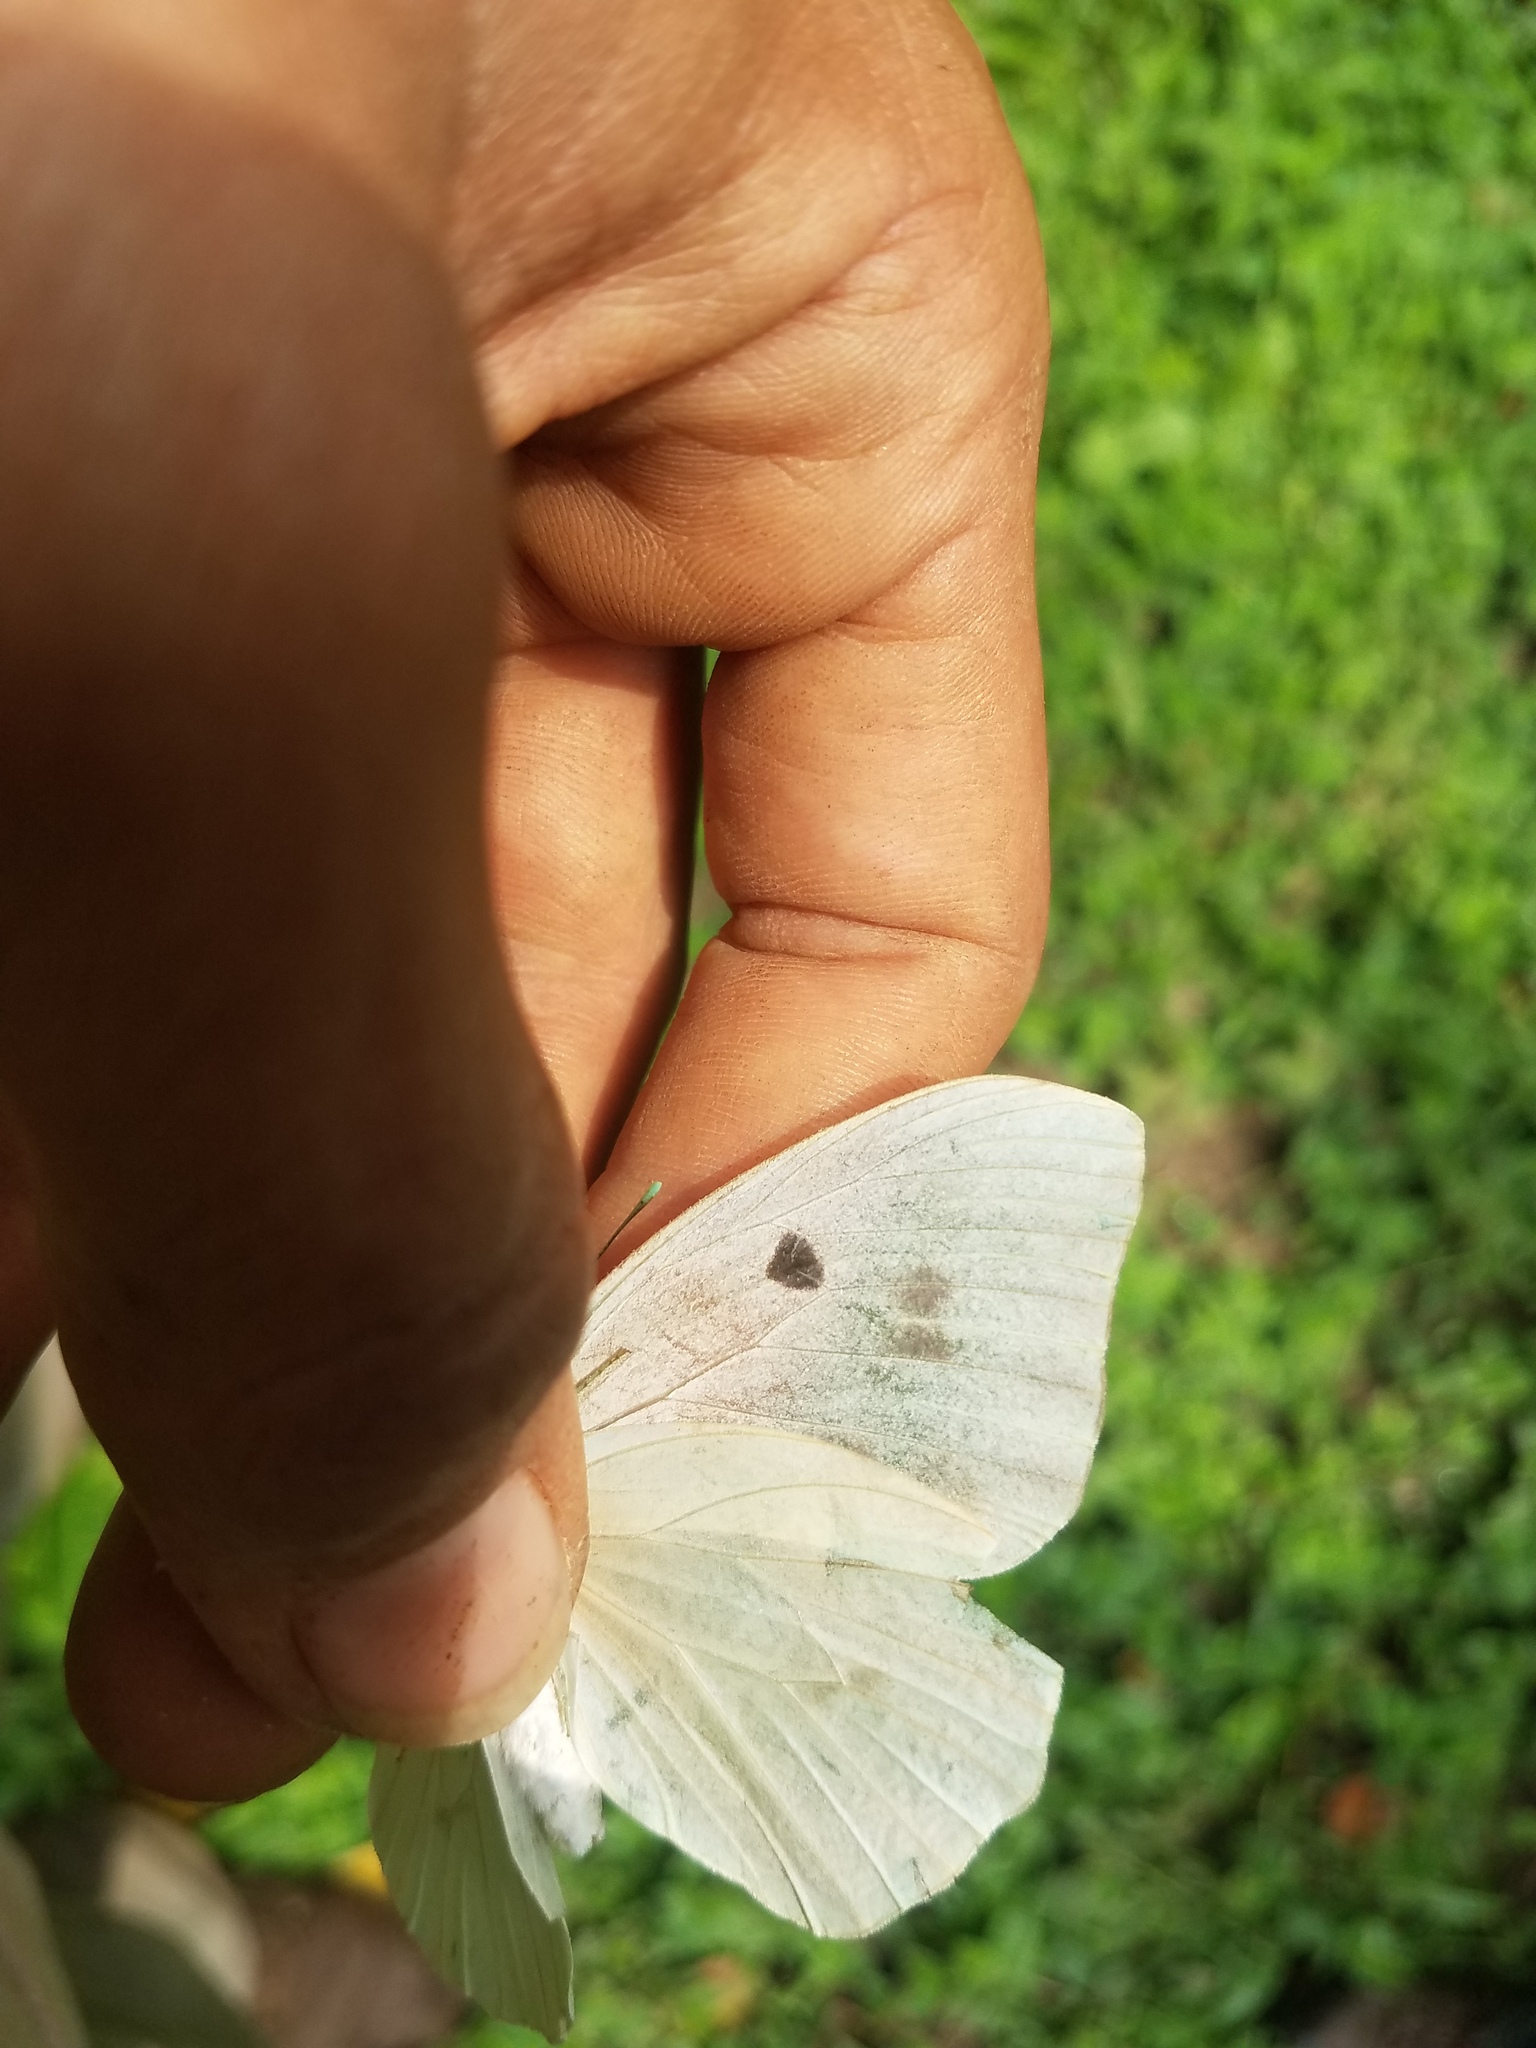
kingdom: Animalia
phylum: Arthropoda
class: Insecta
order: Lepidoptera
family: Pieridae
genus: Ganyra
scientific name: Ganyra josephina
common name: Giant white
